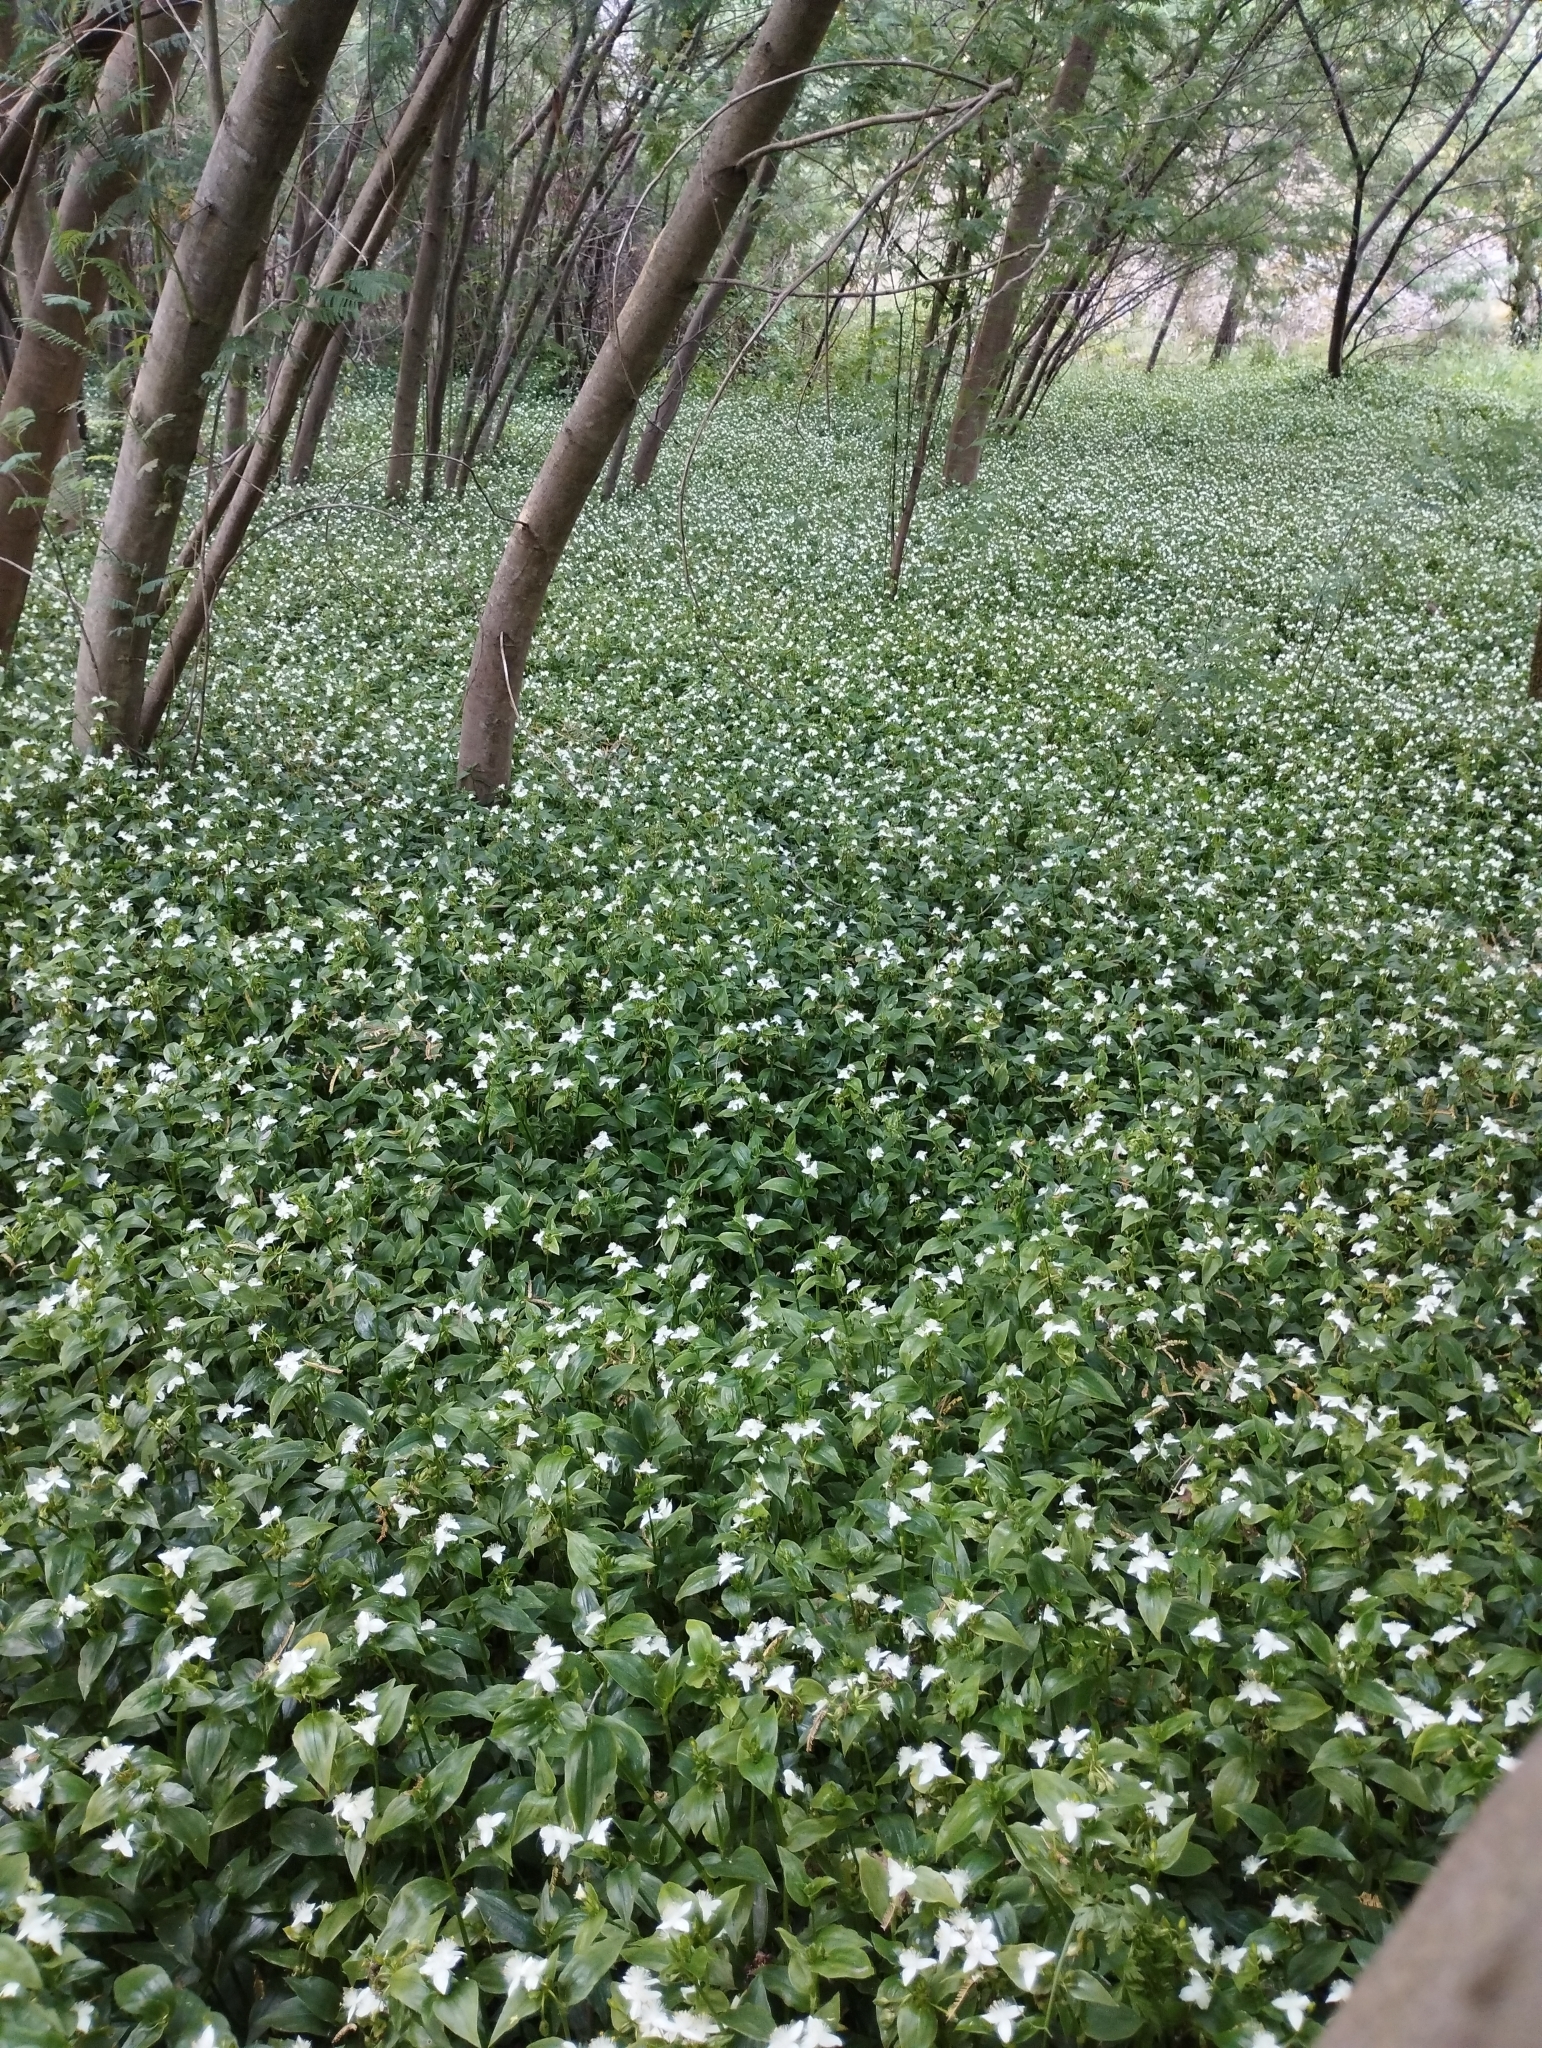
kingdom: Plantae
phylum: Tracheophyta
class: Liliopsida
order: Commelinales
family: Commelinaceae
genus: Tradescantia
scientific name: Tradescantia fluminensis
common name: Wandering-jew
